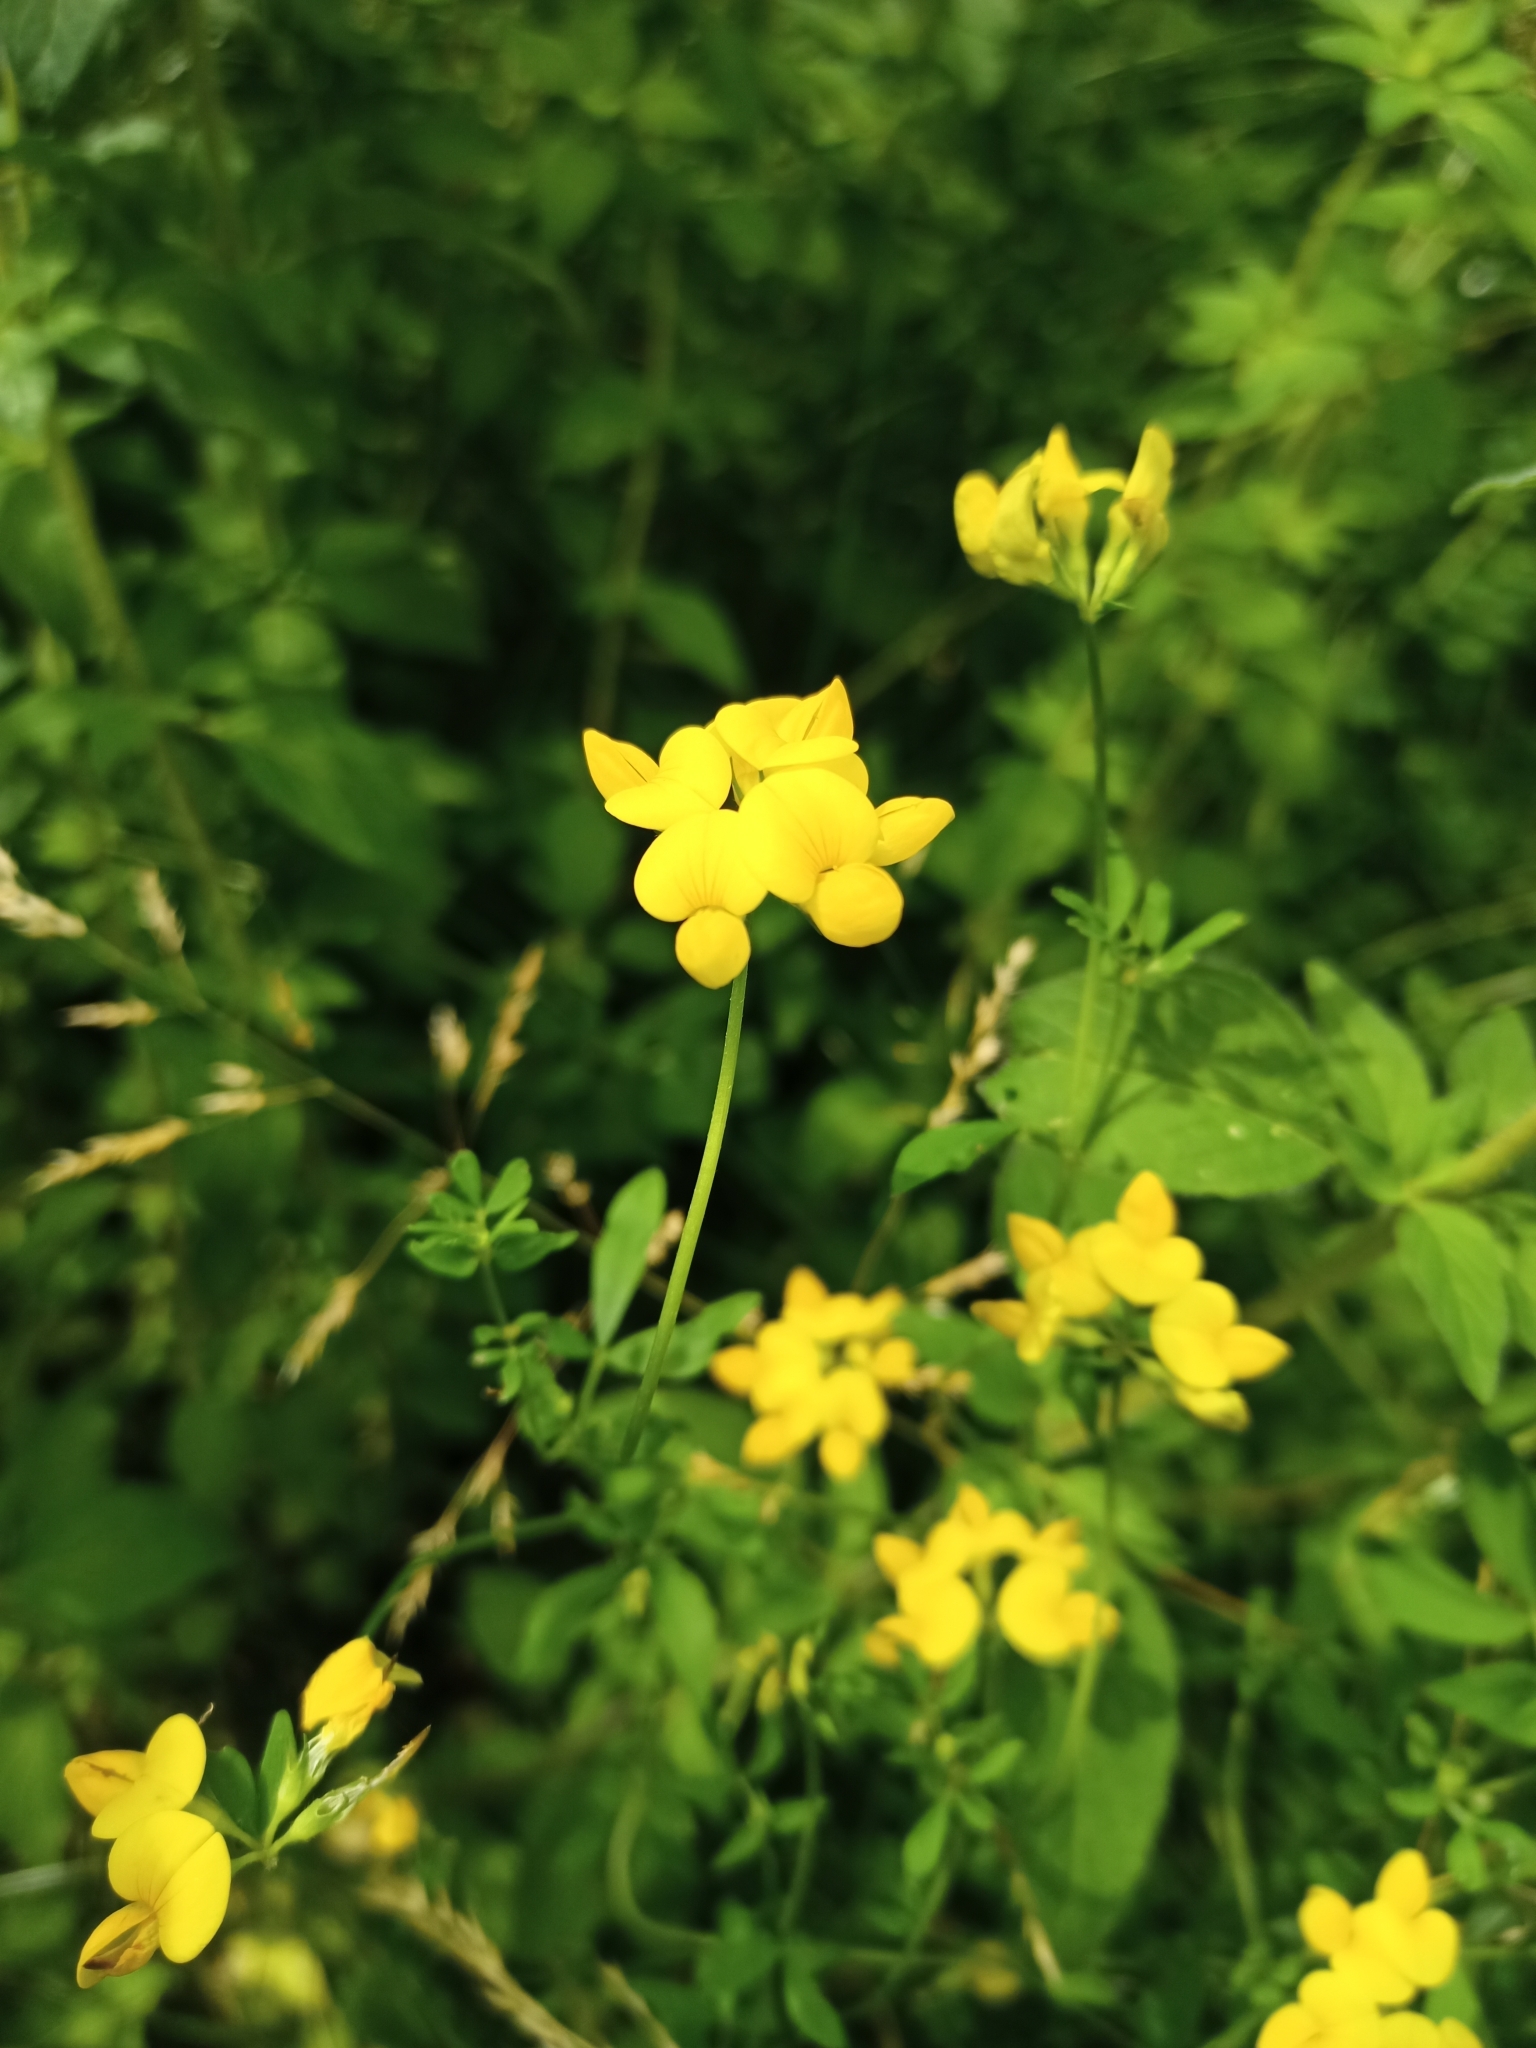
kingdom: Plantae
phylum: Tracheophyta
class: Magnoliopsida
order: Fabales
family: Fabaceae
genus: Lotus
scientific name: Lotus corniculatus
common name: Common bird's-foot-trefoil
